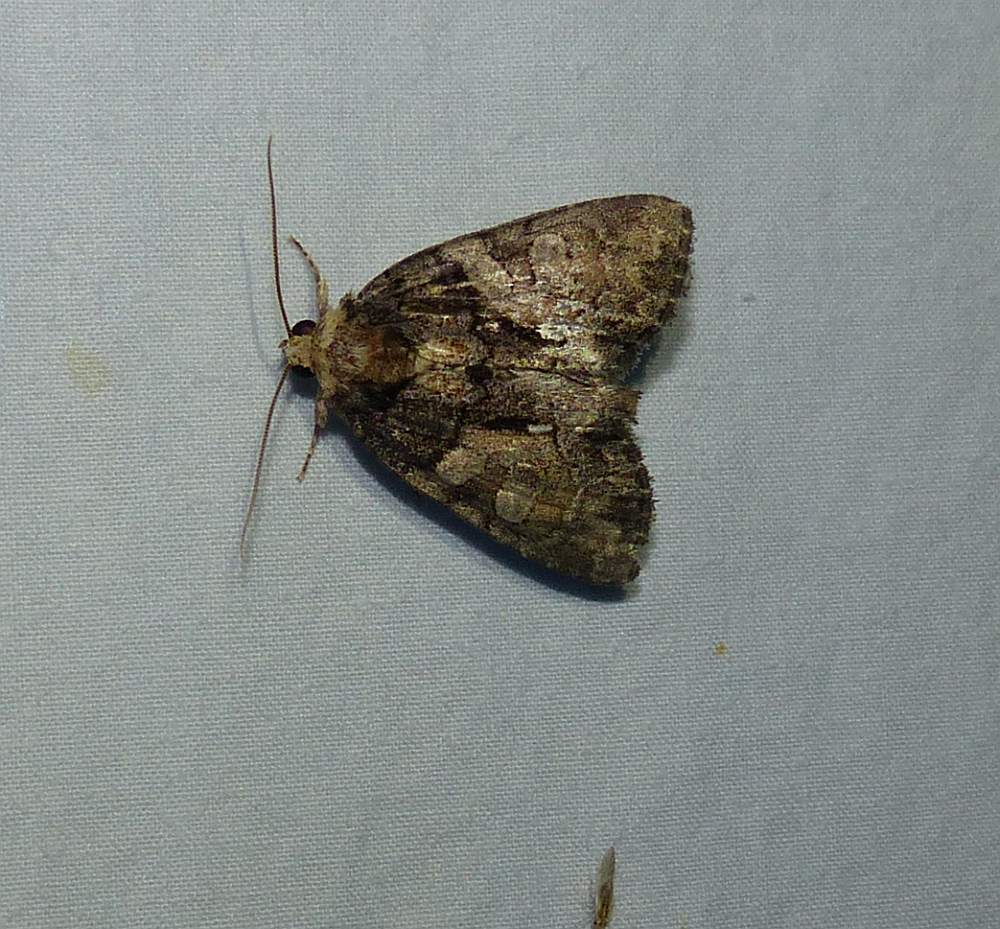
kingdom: Animalia
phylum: Arthropoda
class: Insecta
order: Lepidoptera
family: Noctuidae
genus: Chytonix
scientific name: Chytonix palliatricula
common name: Cloaked marvel
